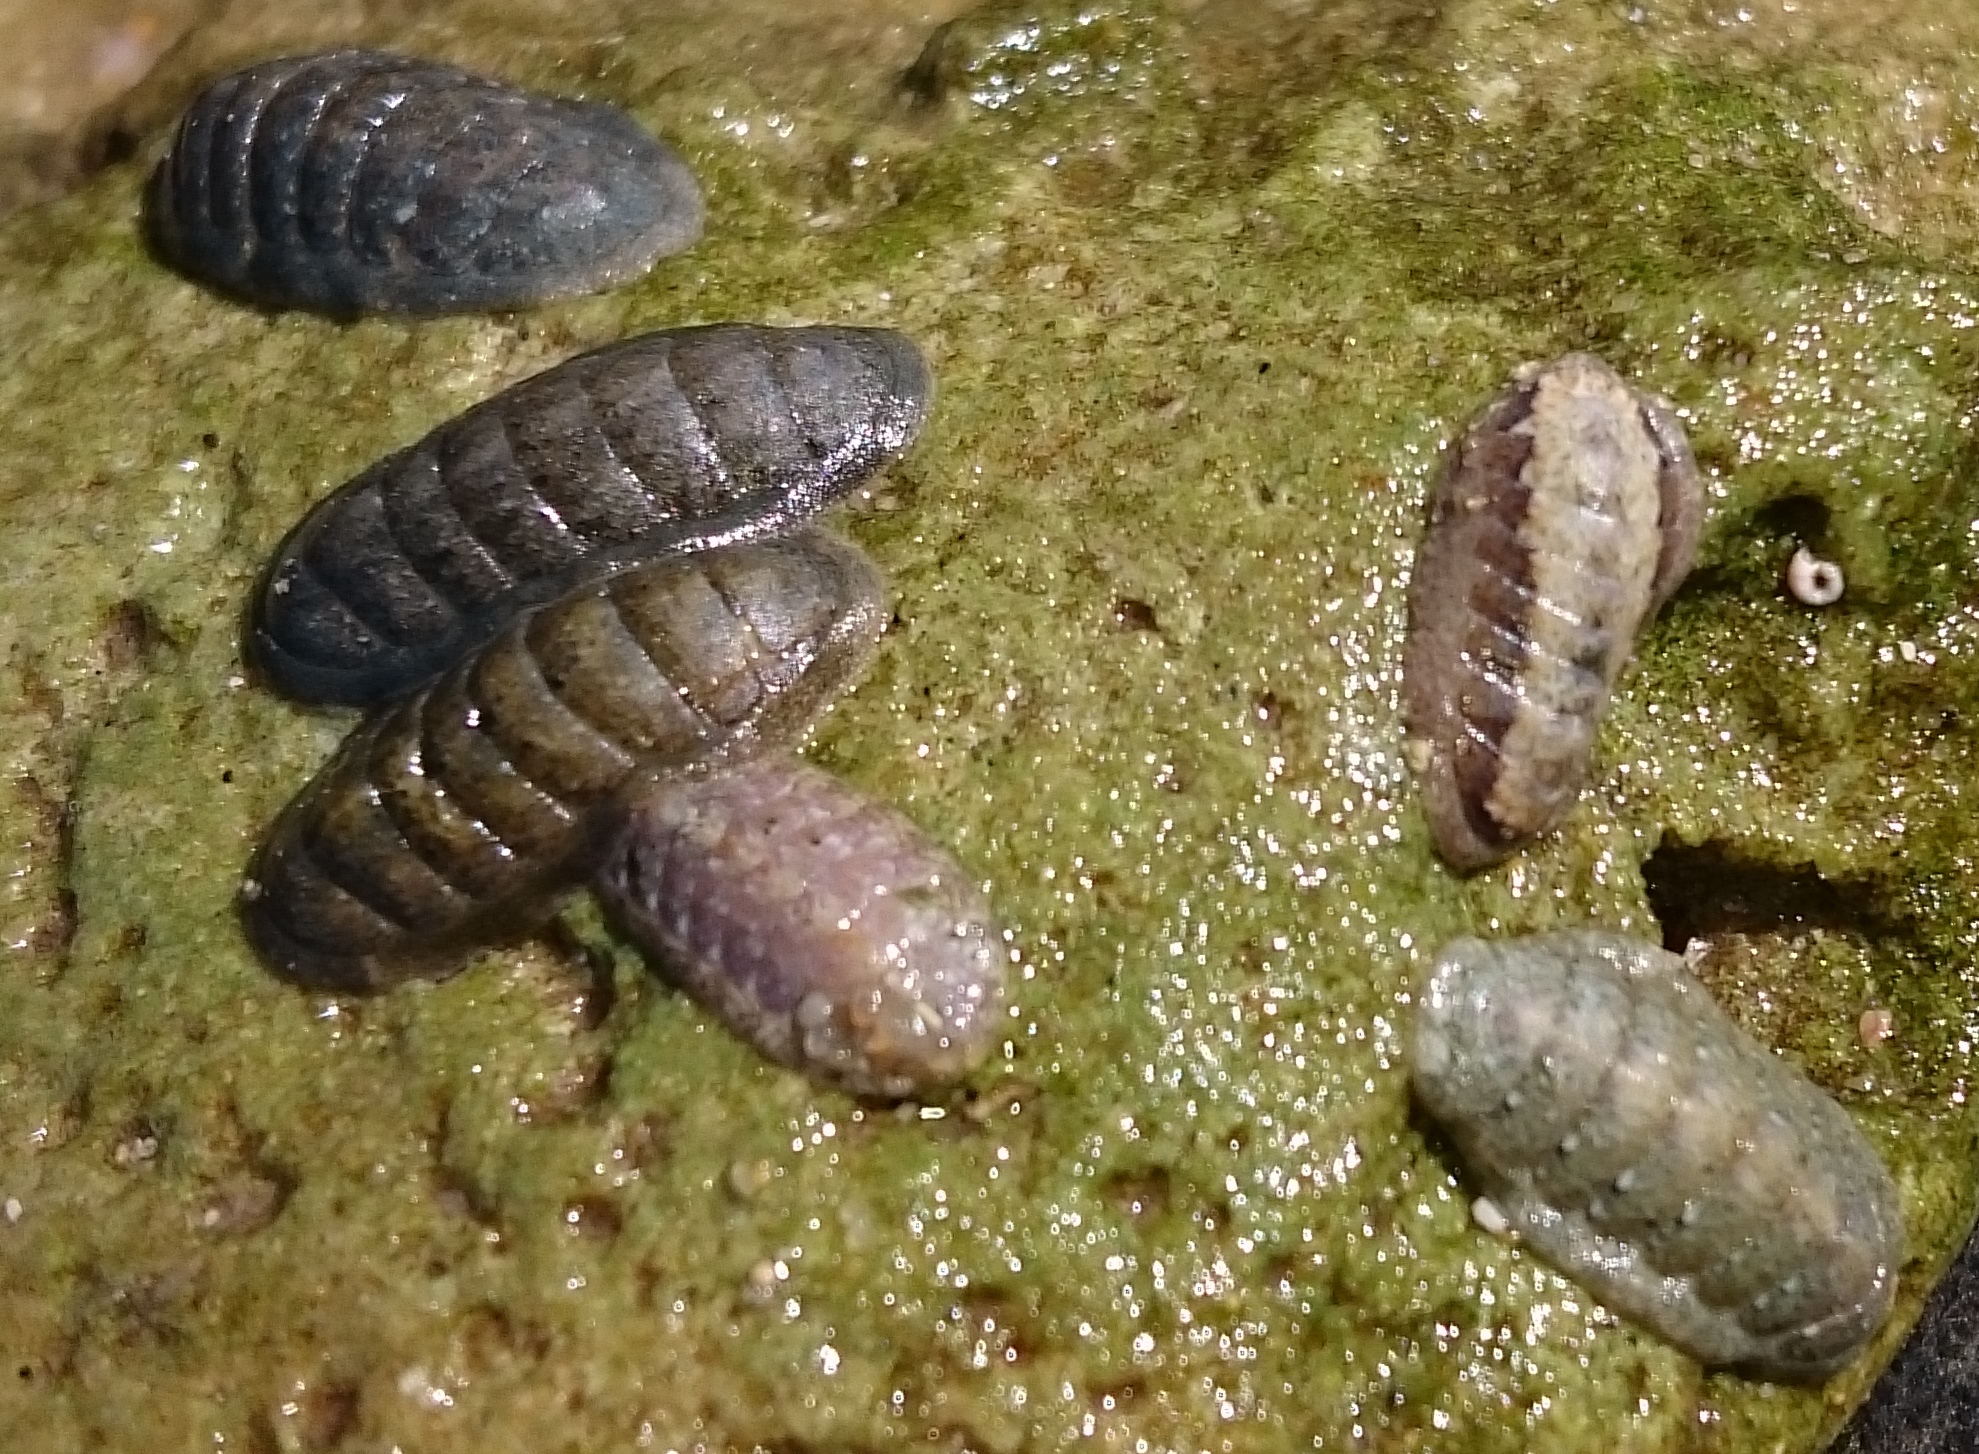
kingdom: Animalia
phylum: Mollusca
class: Polyplacophora
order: Chitonida
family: Ischnochitonidae
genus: Ischnochiton
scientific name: Ischnochiton oniscus
